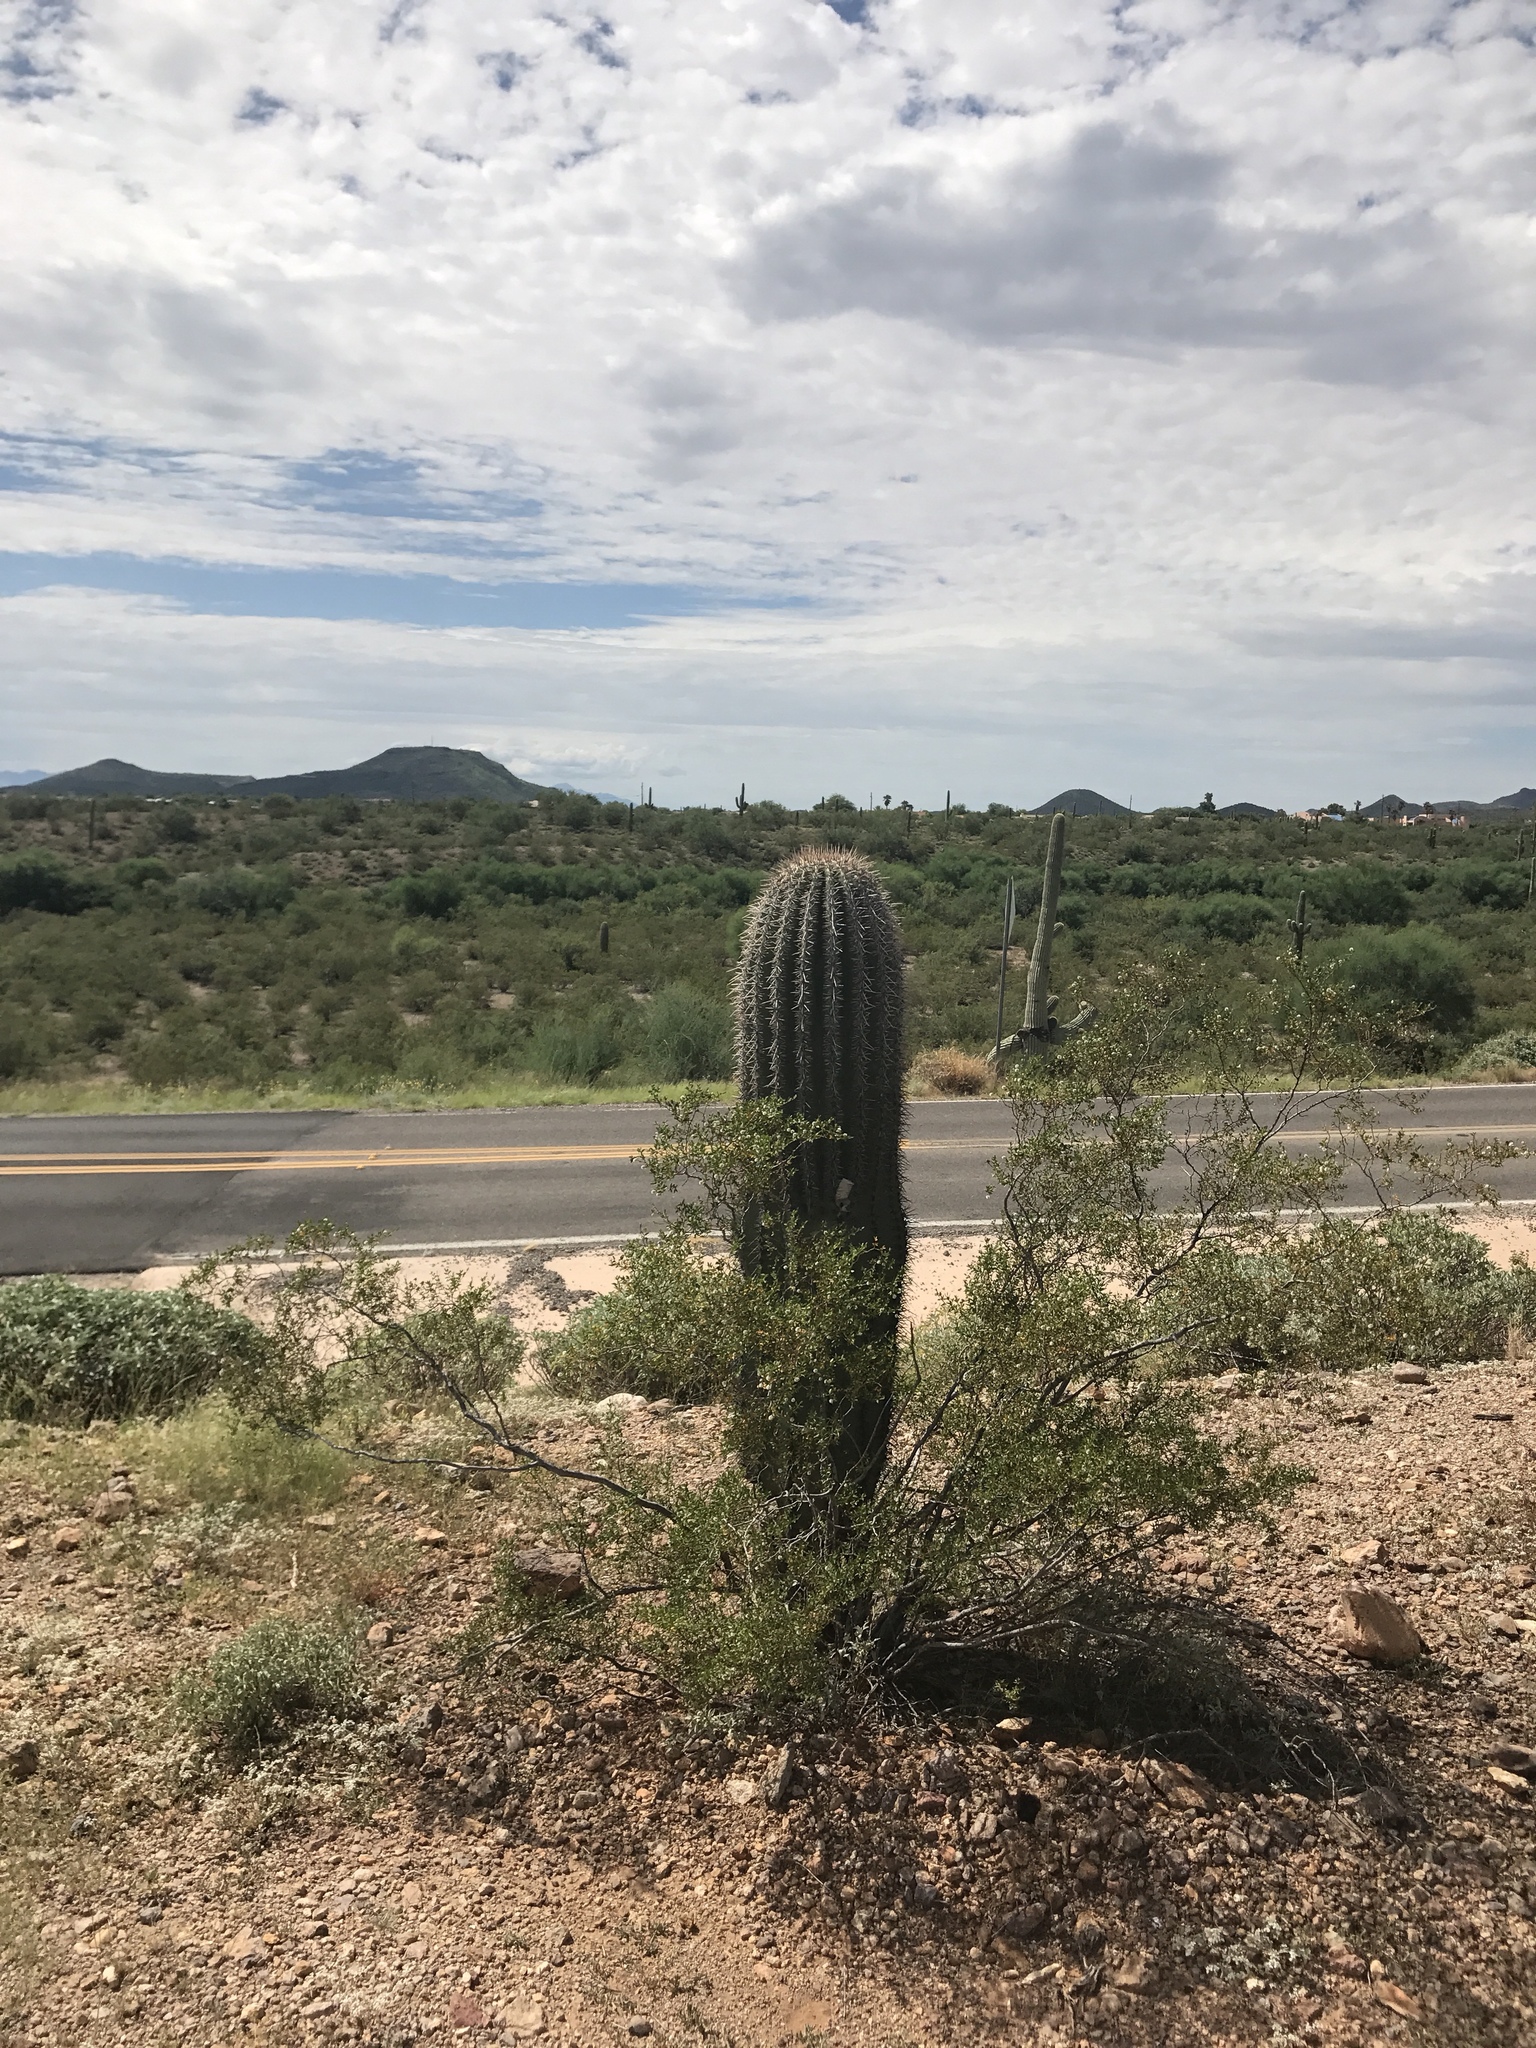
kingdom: Plantae
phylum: Tracheophyta
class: Magnoliopsida
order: Caryophyllales
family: Cactaceae
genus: Carnegiea
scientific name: Carnegiea gigantea
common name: Saguaro
